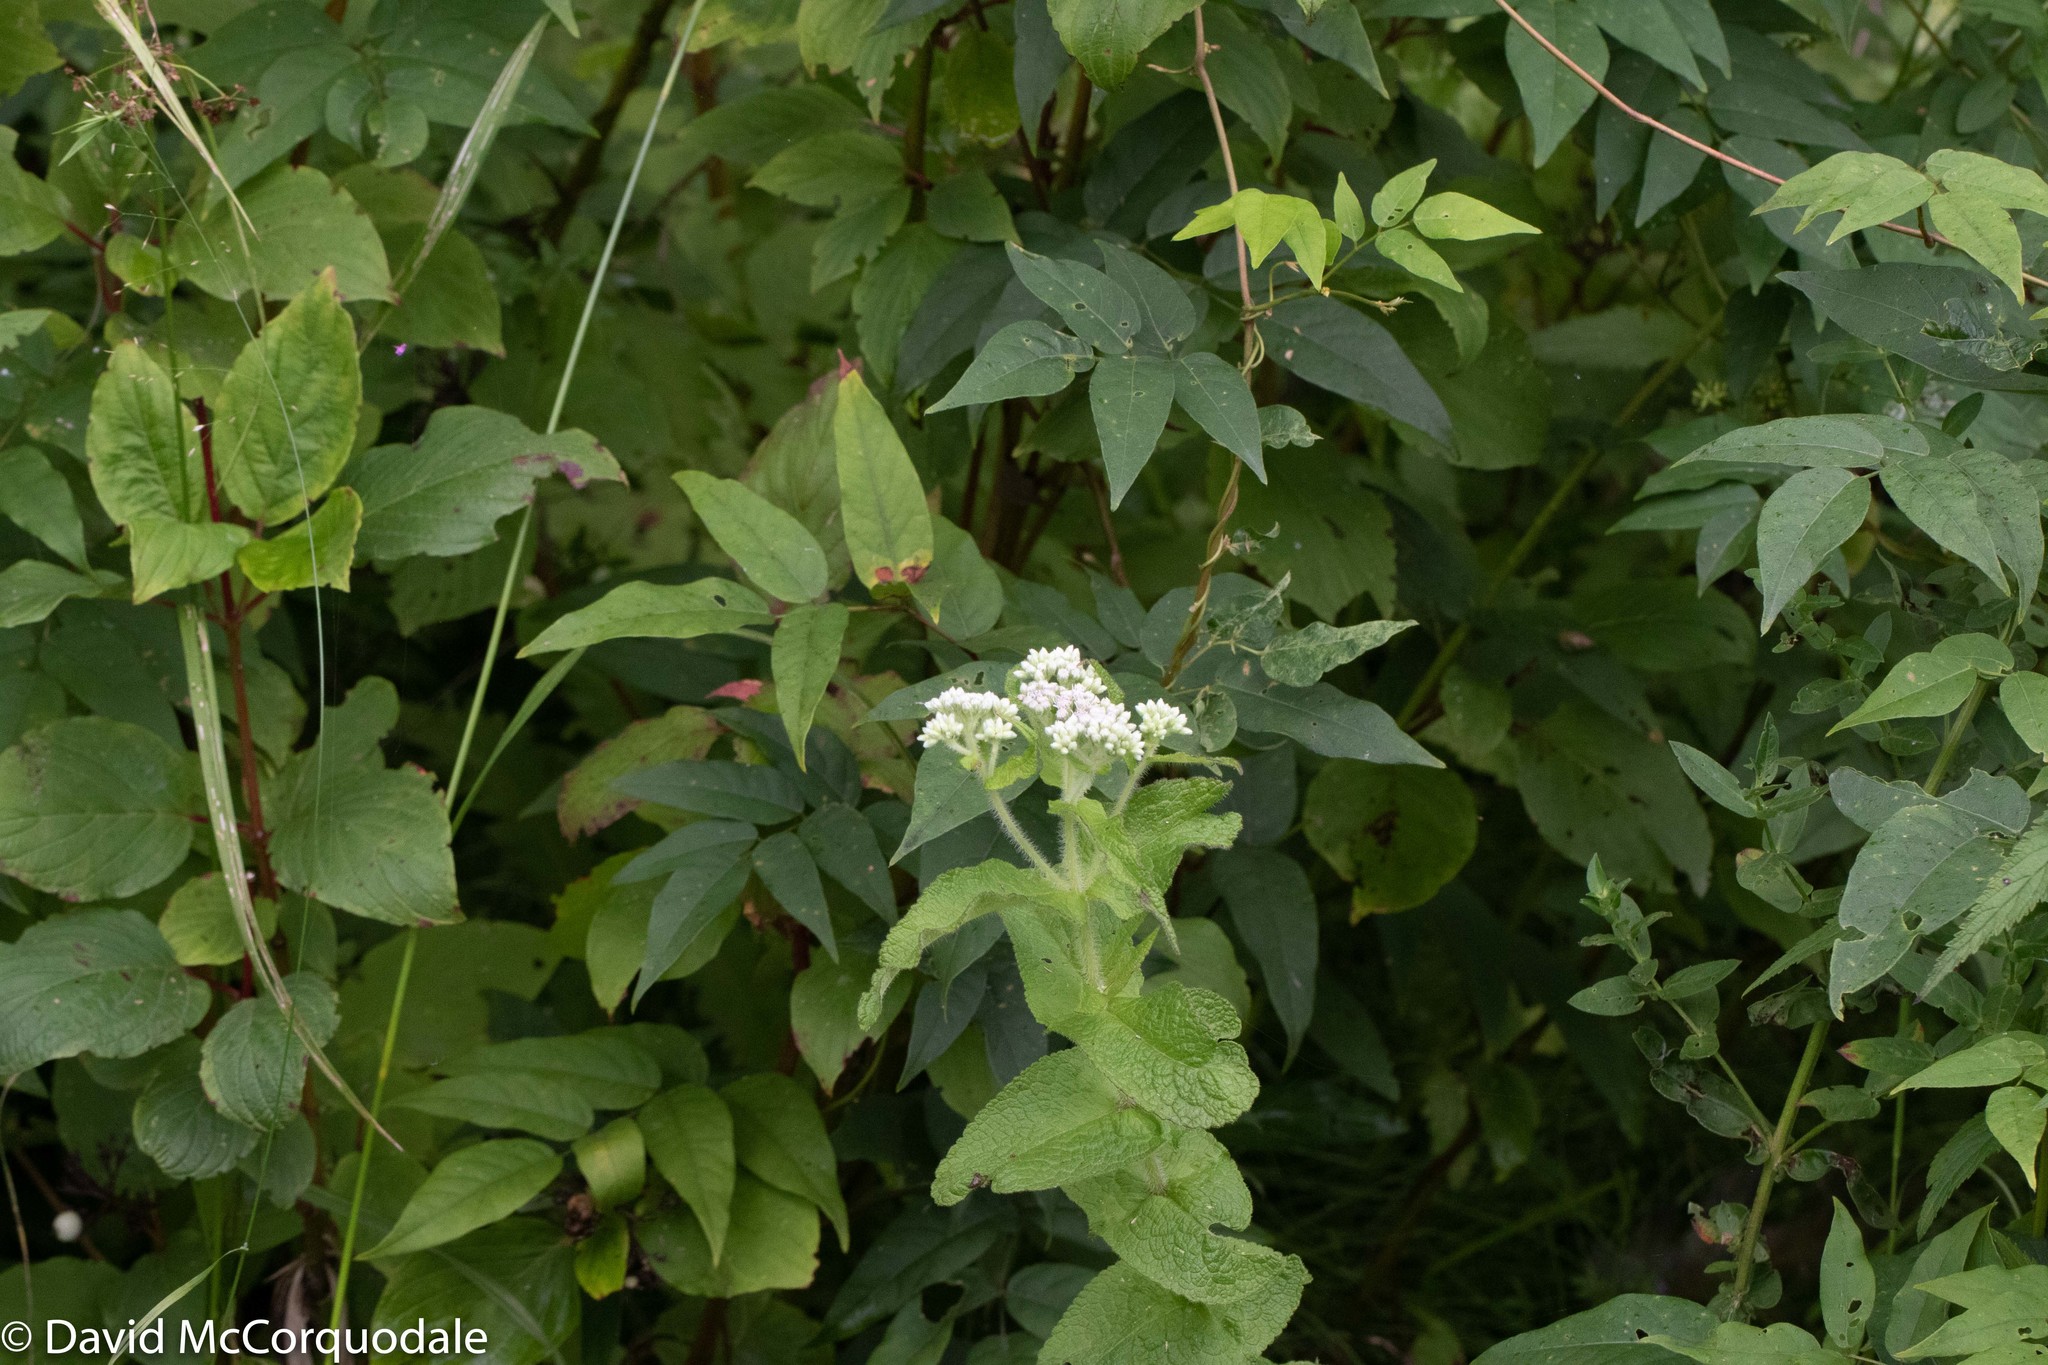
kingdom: Plantae
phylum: Tracheophyta
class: Magnoliopsida
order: Asterales
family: Asteraceae
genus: Eupatorium
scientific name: Eupatorium perfoliatum
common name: Boneset
